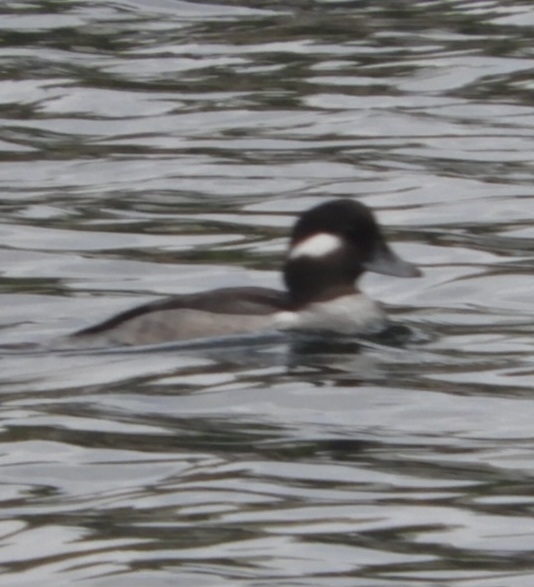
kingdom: Animalia
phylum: Chordata
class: Aves
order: Anseriformes
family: Anatidae
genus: Bucephala
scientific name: Bucephala albeola
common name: Bufflehead
